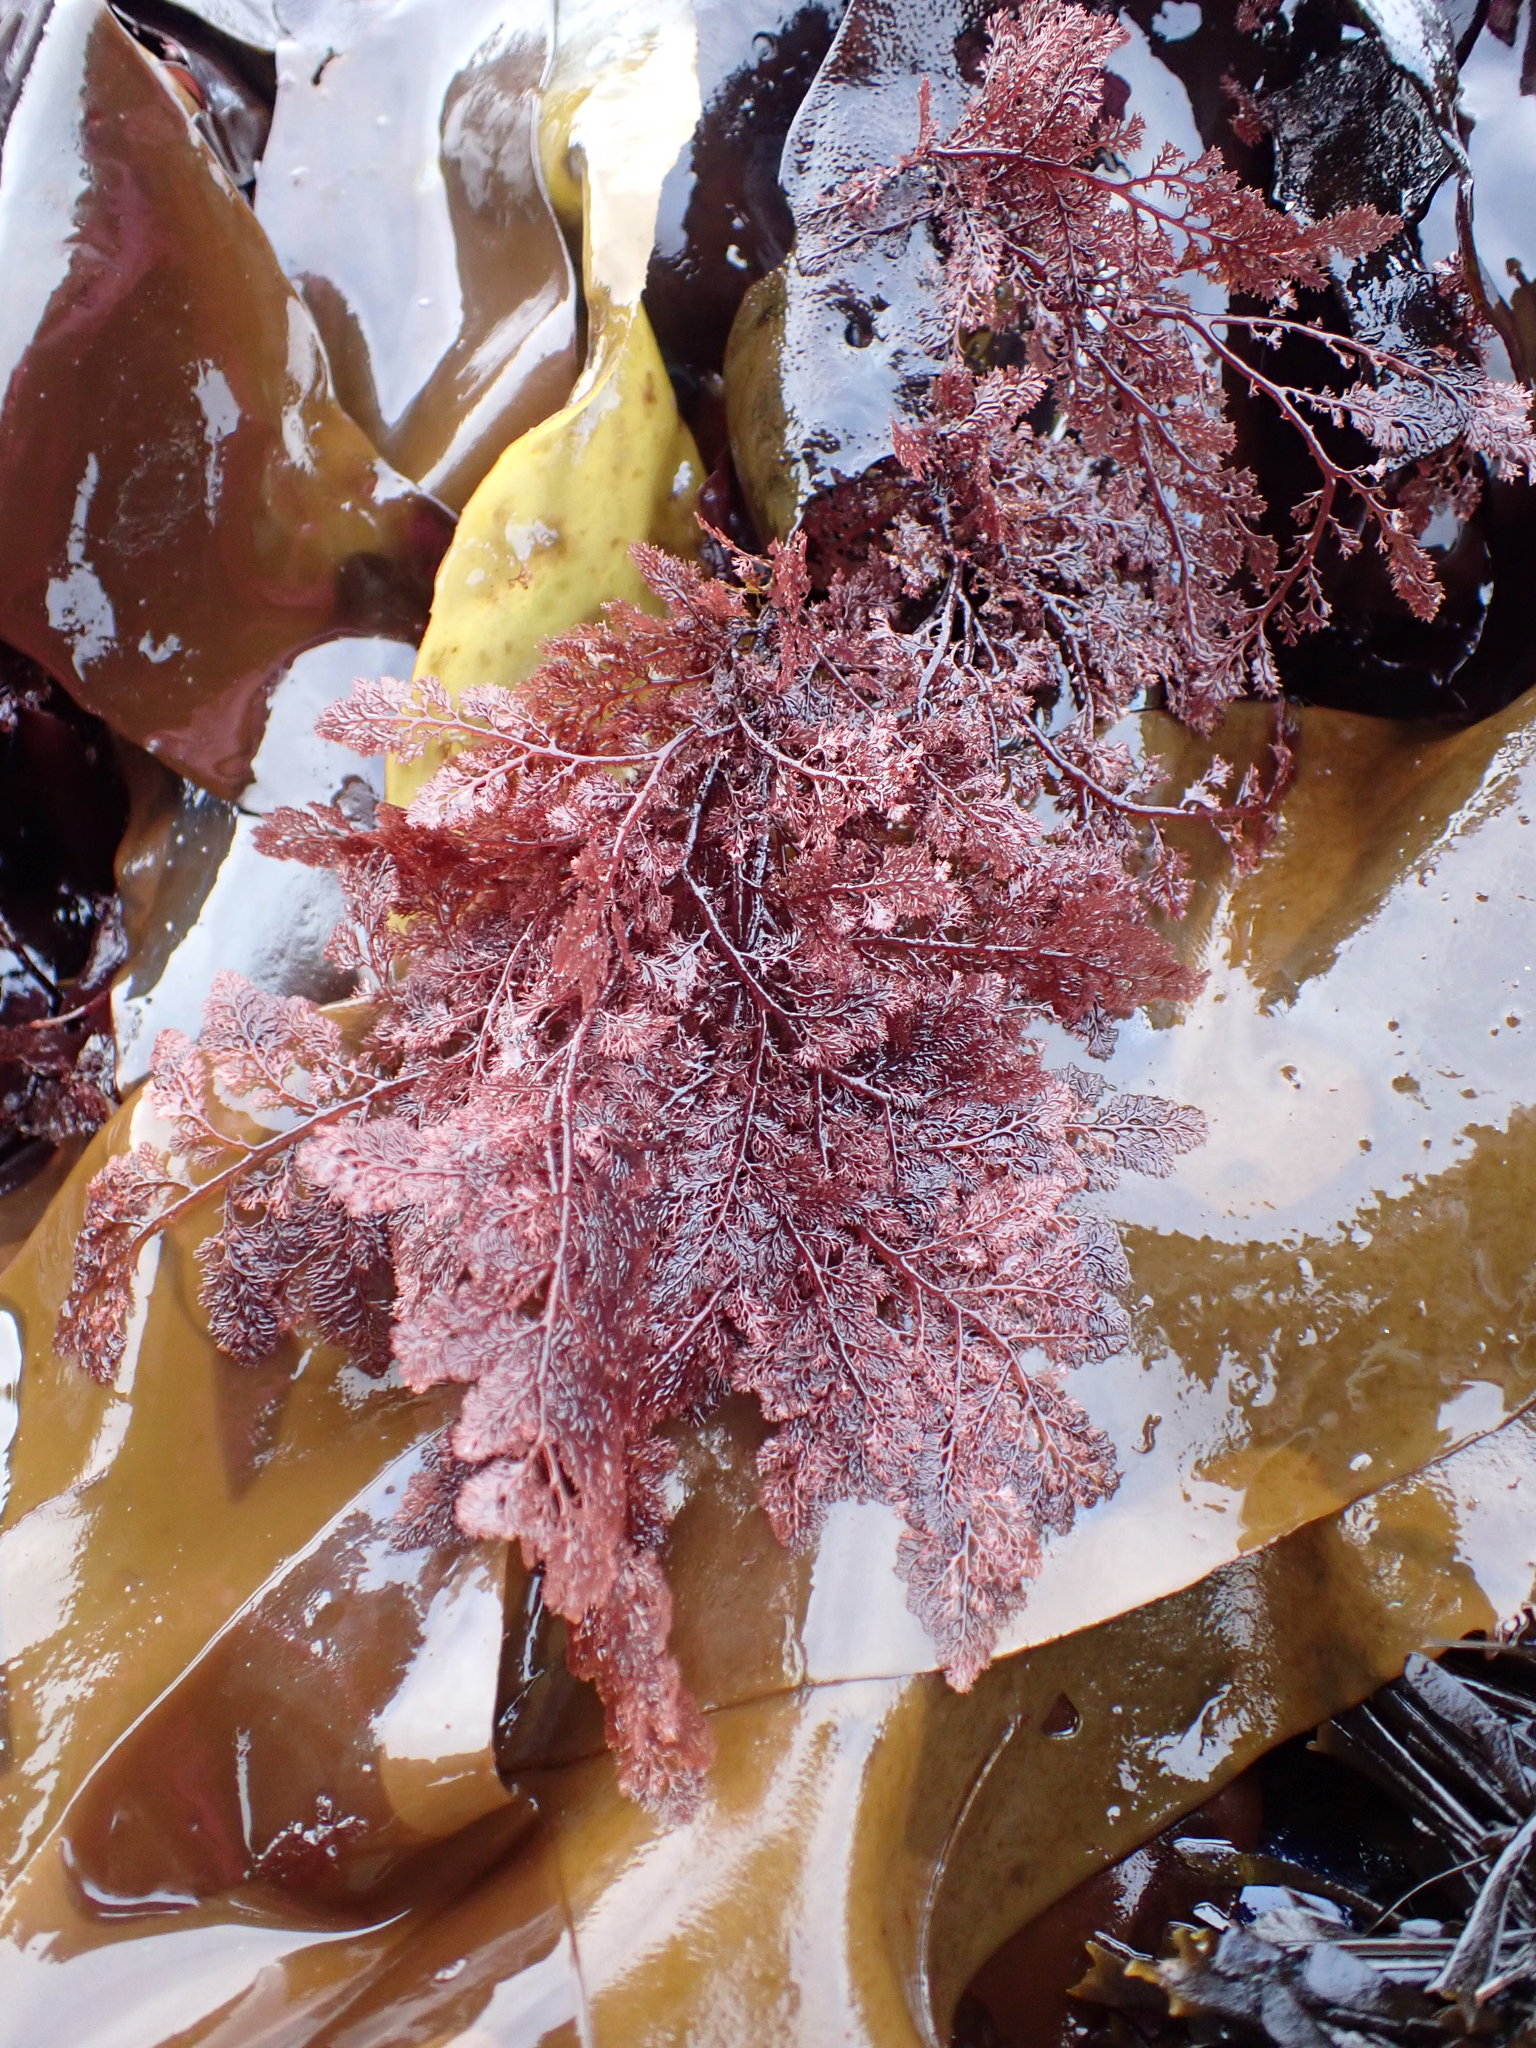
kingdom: Plantae
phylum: Rhodophyta
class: Florideophyceae
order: Ceramiales
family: Ceramiaceae
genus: Microcladia
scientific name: Microcladia coulteri
